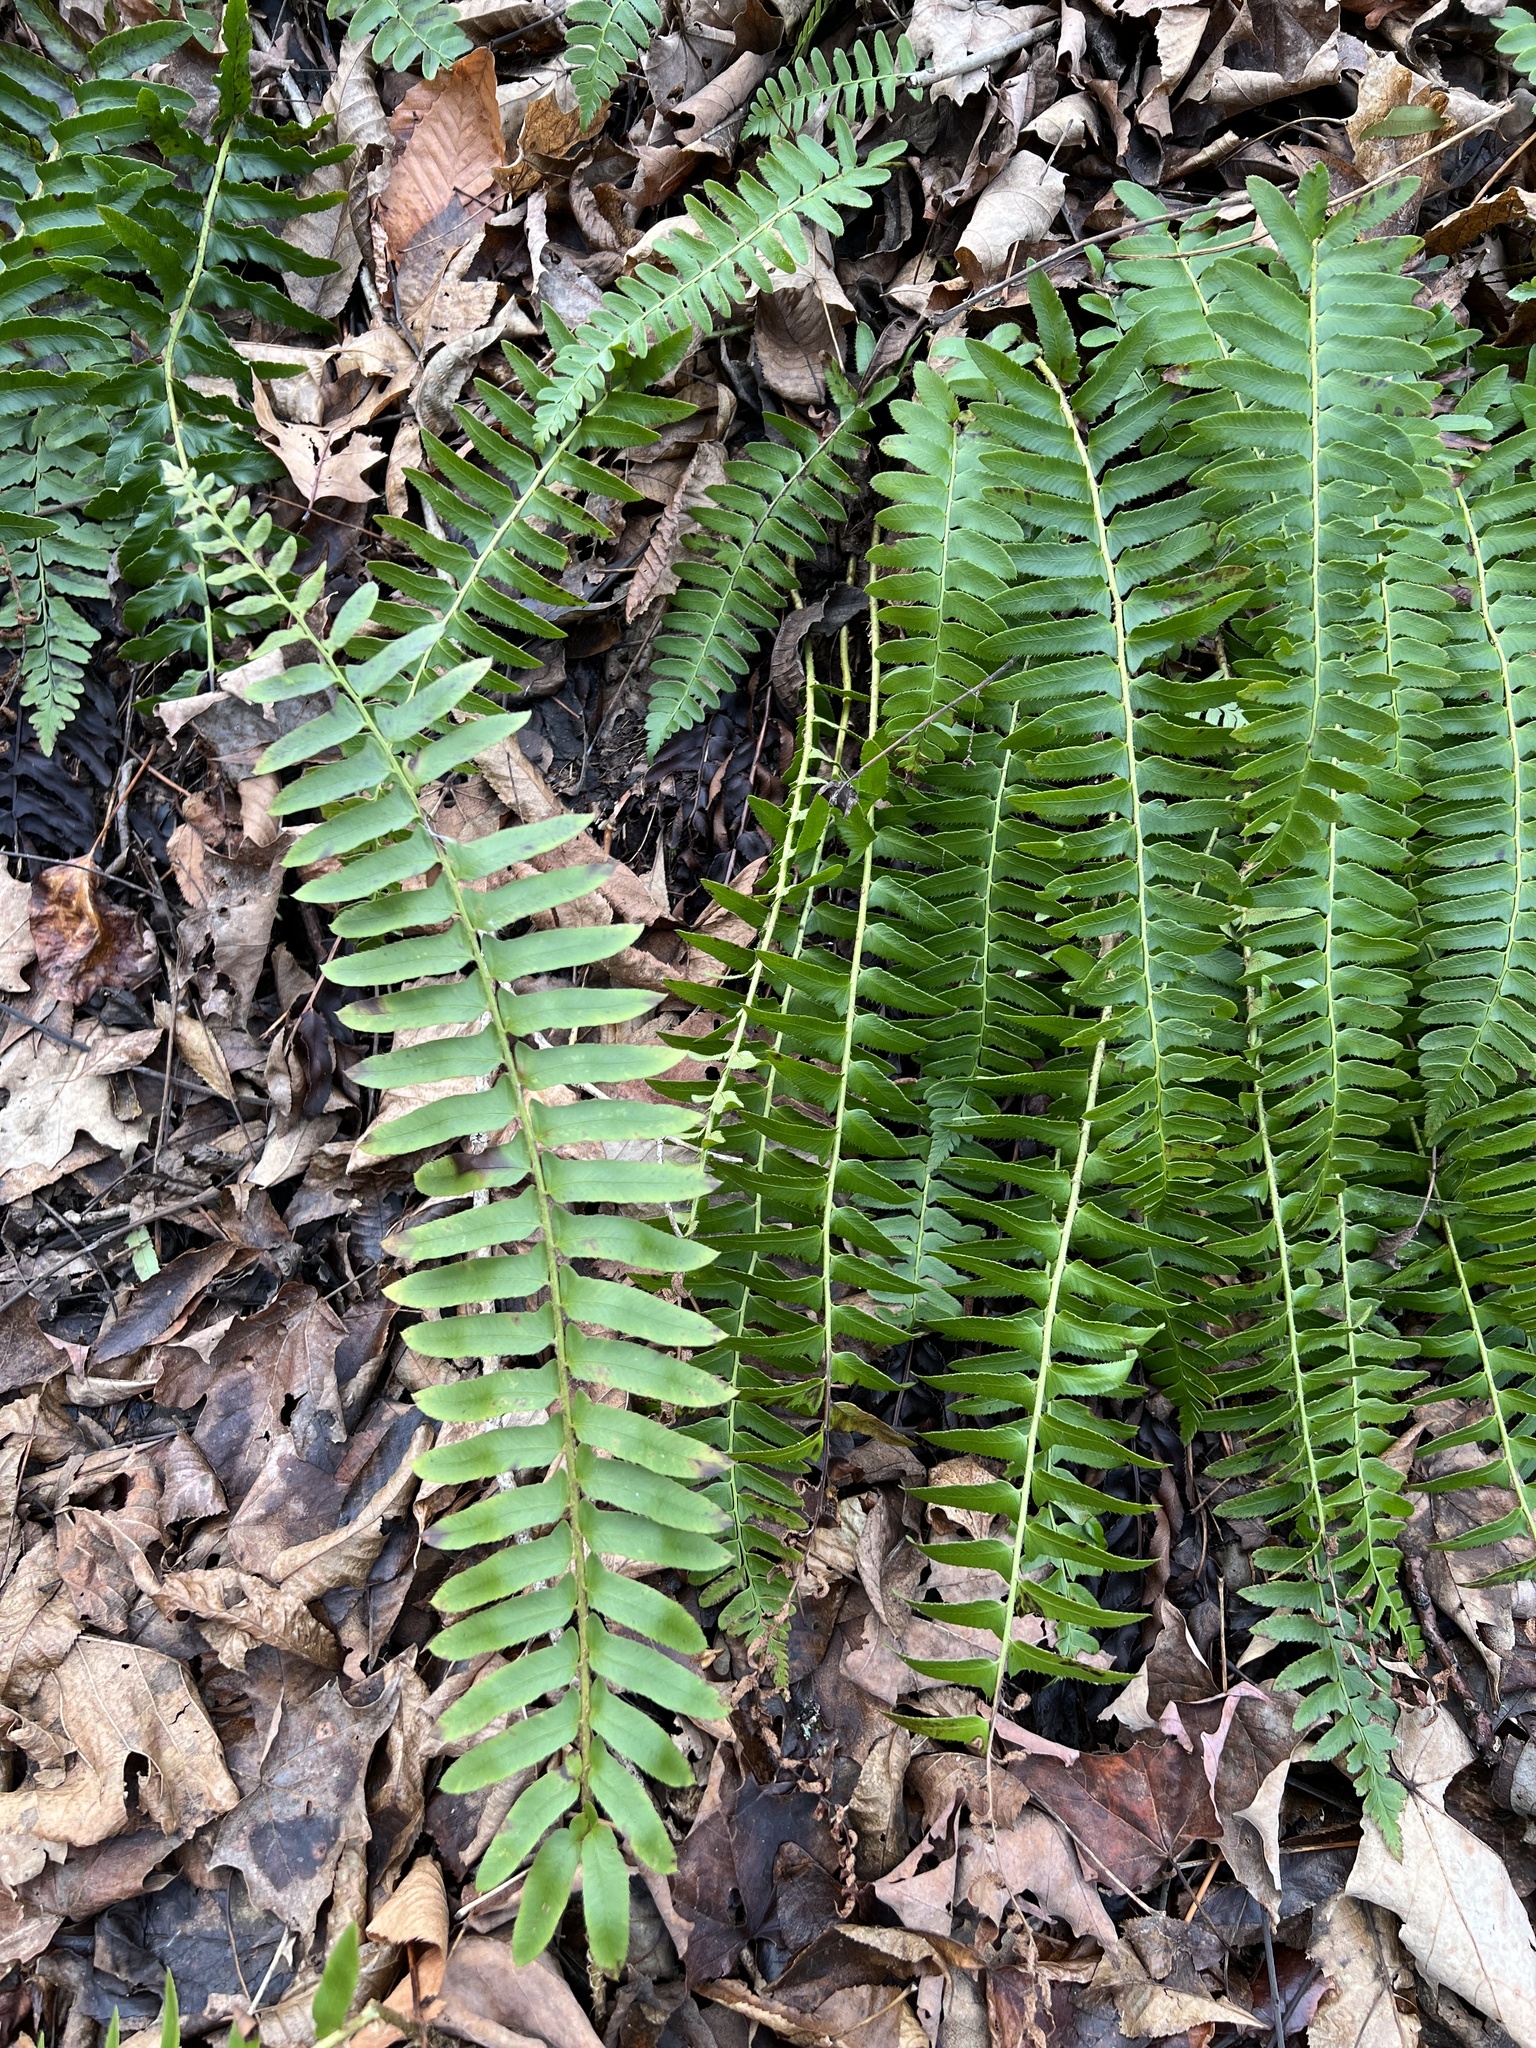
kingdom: Plantae
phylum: Tracheophyta
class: Polypodiopsida
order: Polypodiales
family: Dryopteridaceae
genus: Polystichum
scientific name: Polystichum acrostichoides
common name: Christmas fern
